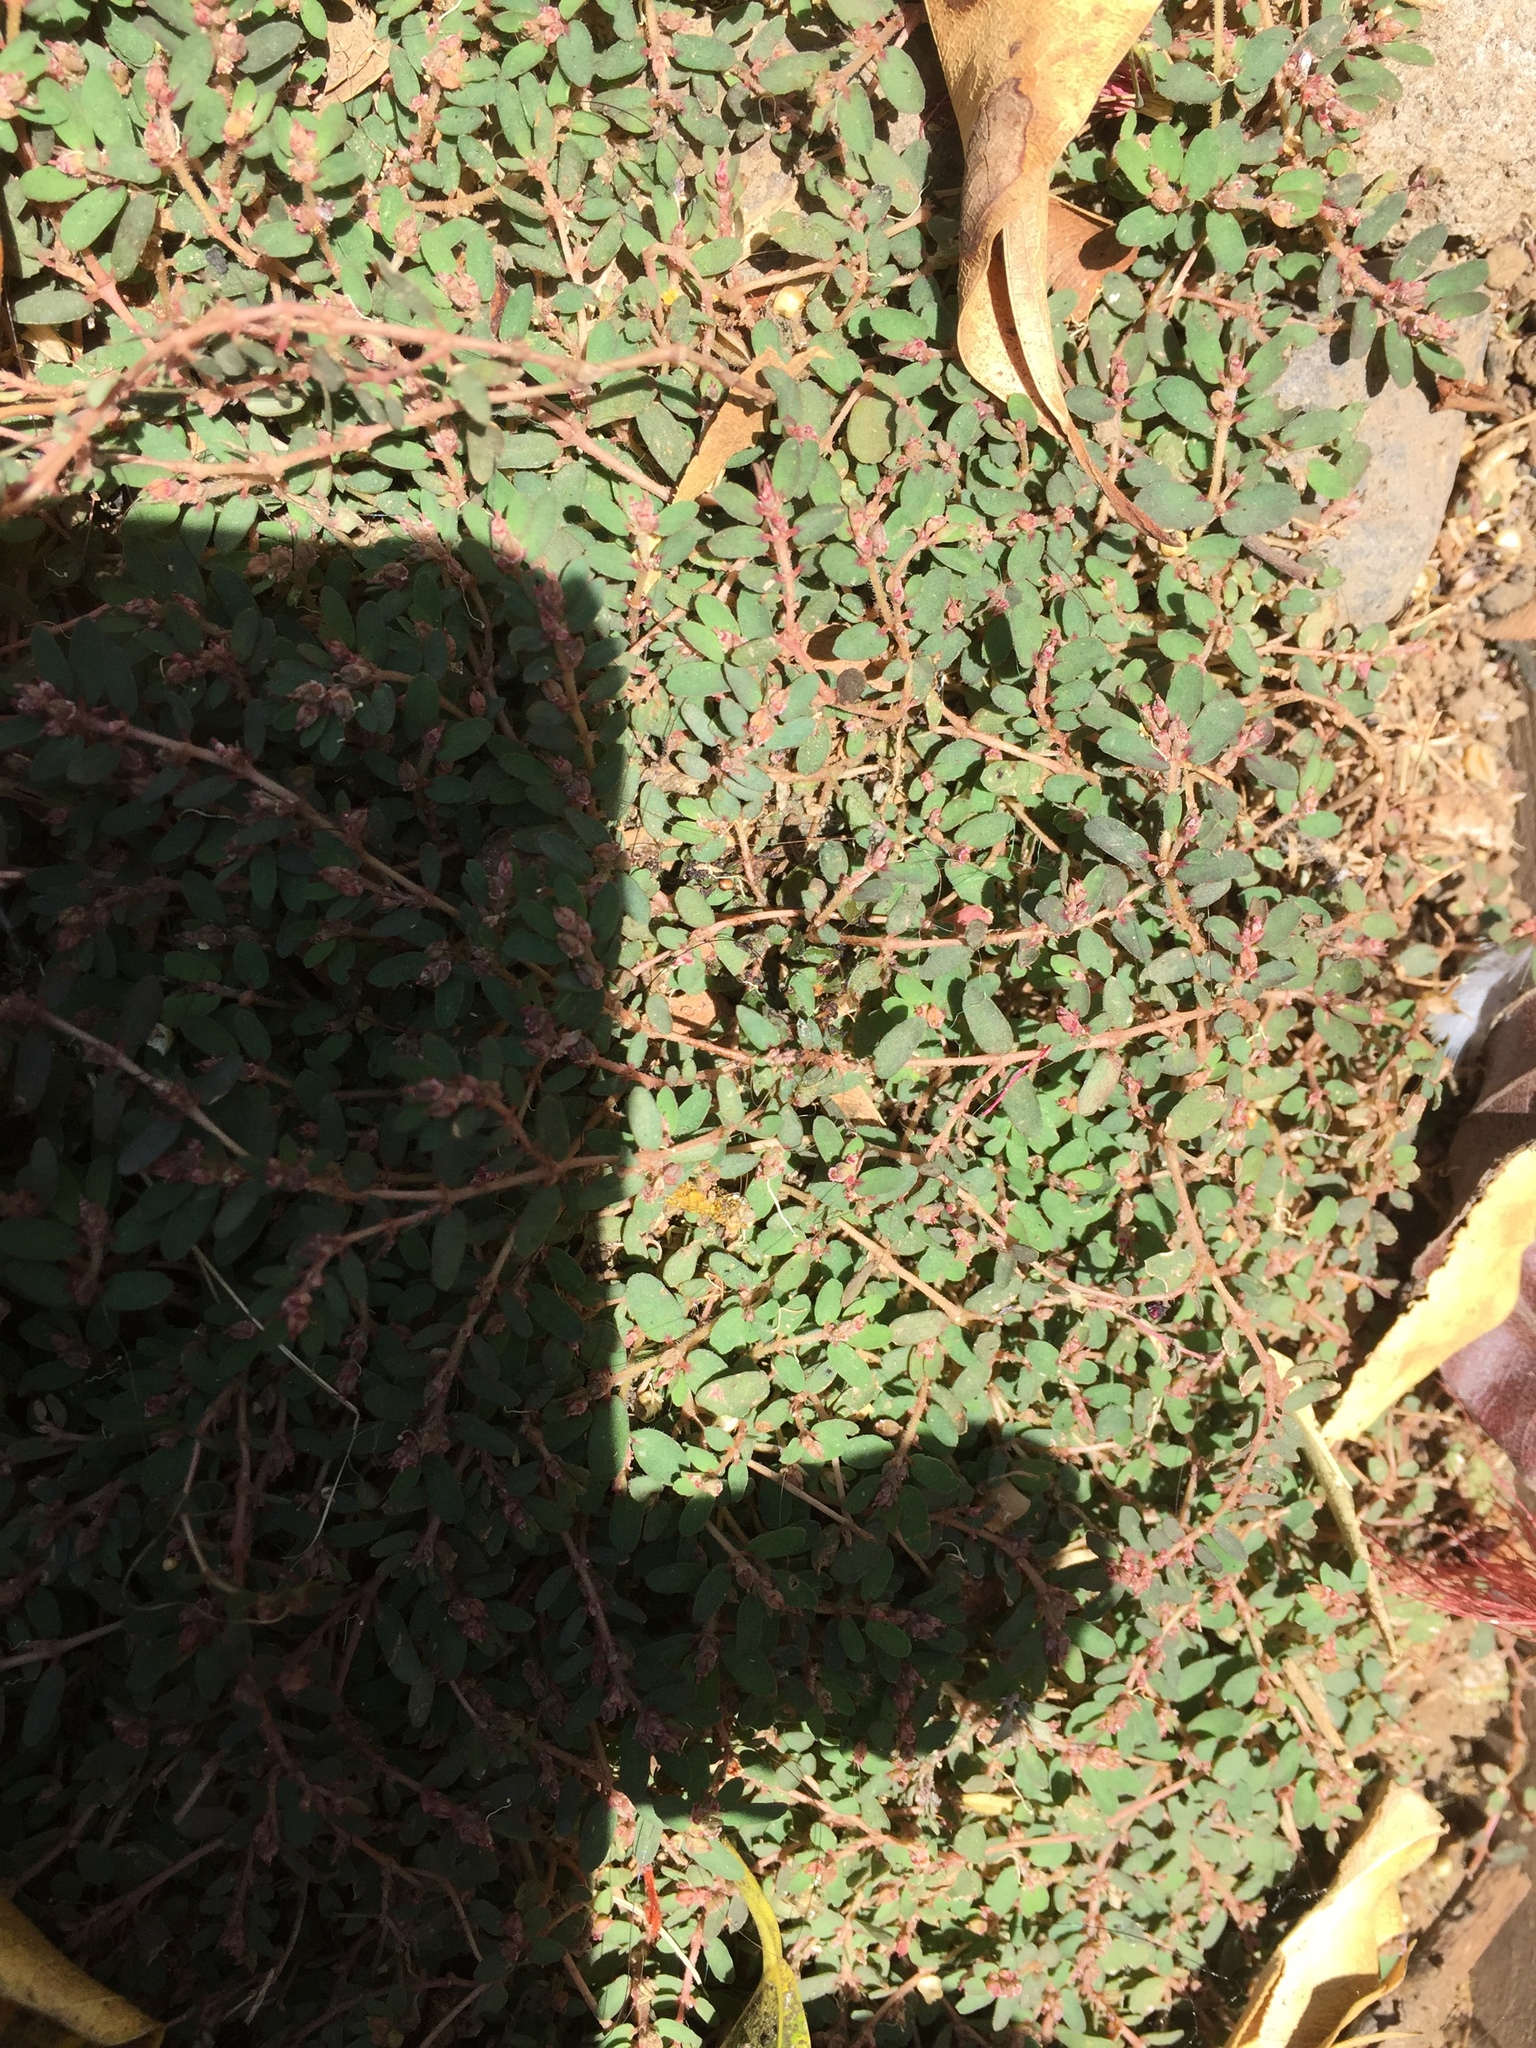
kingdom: Plantae
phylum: Tracheophyta
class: Magnoliopsida
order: Malpighiales
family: Euphorbiaceae
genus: Euphorbia
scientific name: Euphorbia thymifolia
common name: Gulf sandmat
